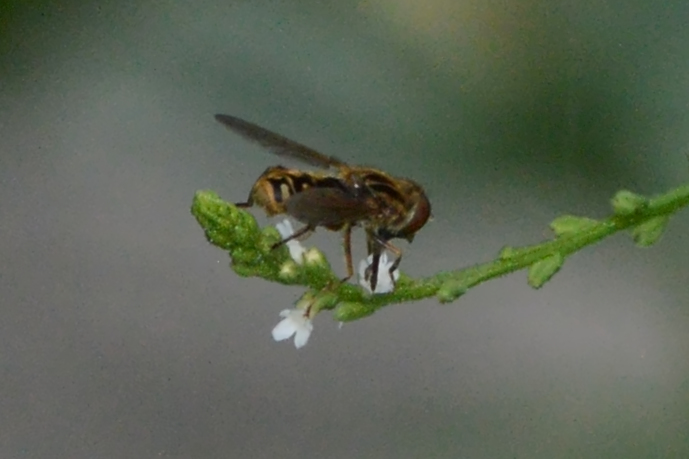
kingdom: Animalia
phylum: Arthropoda
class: Insecta
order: Diptera
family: Syrphidae
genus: Eurimyia
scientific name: Eurimyia stipatus
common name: Long-nosed swamp fly
